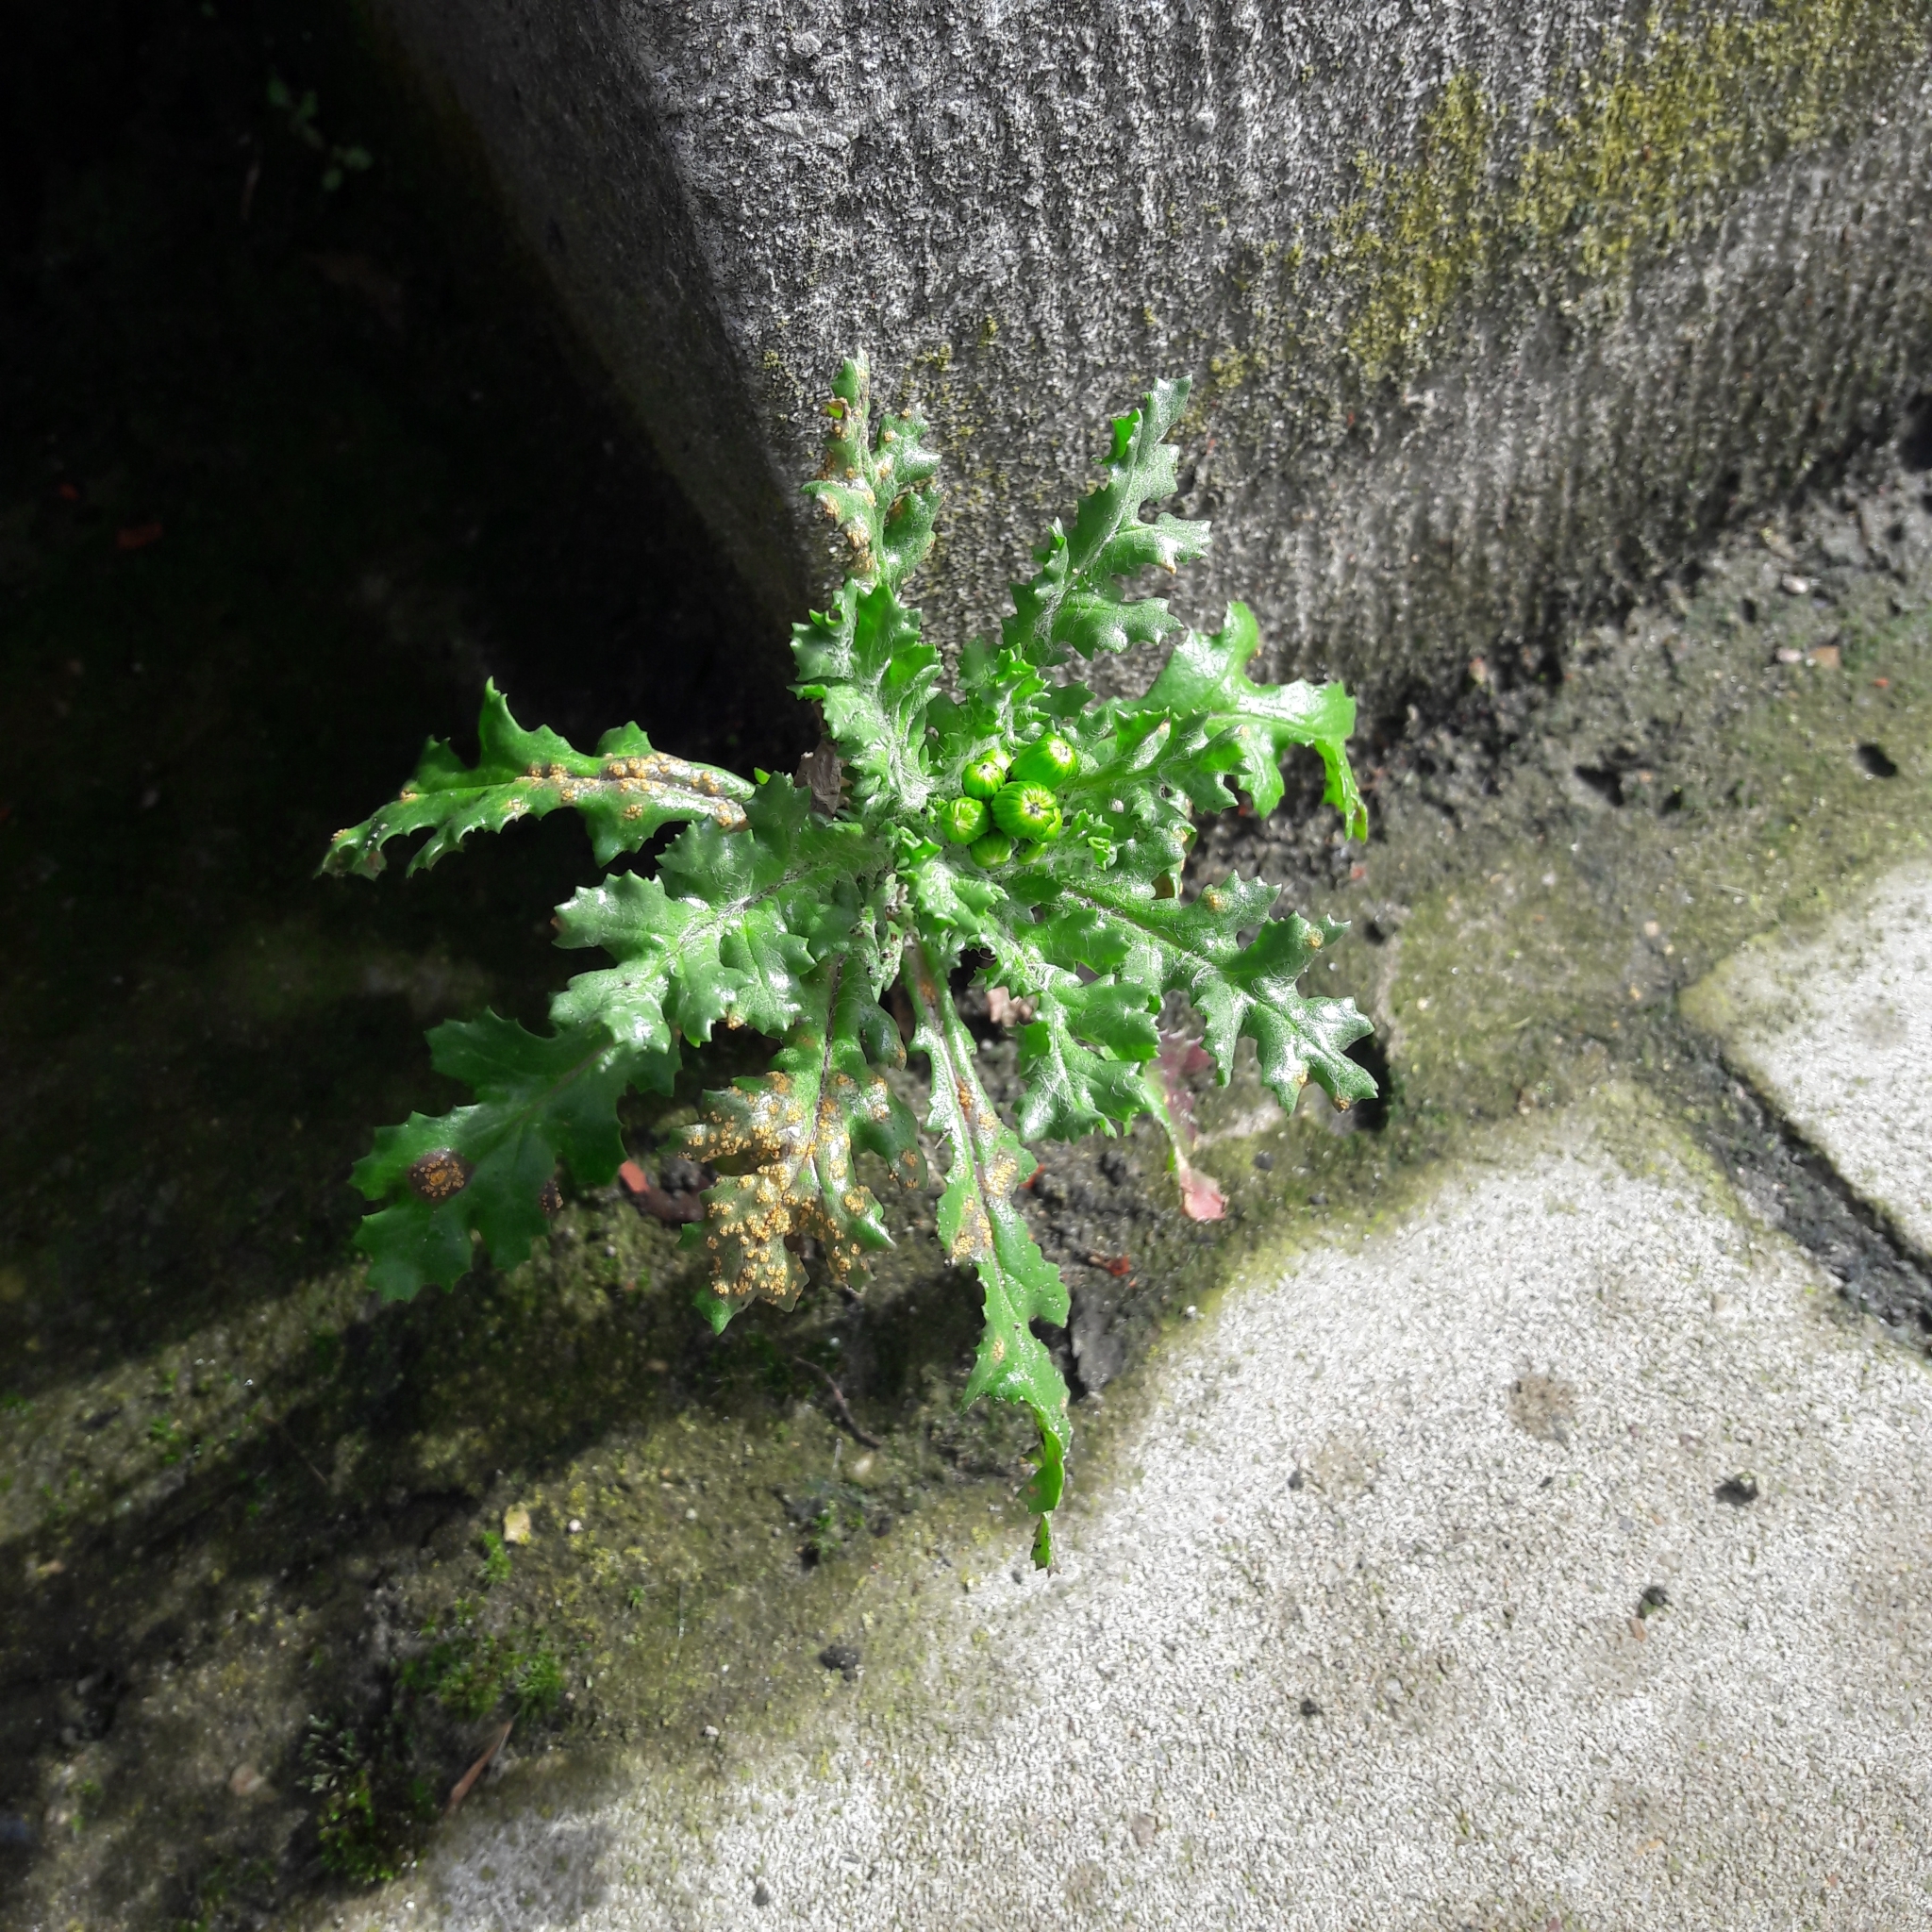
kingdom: Plantae
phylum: Tracheophyta
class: Magnoliopsida
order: Asterales
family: Asteraceae
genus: Senecio
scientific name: Senecio vulgaris
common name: Old-man-in-the-spring
